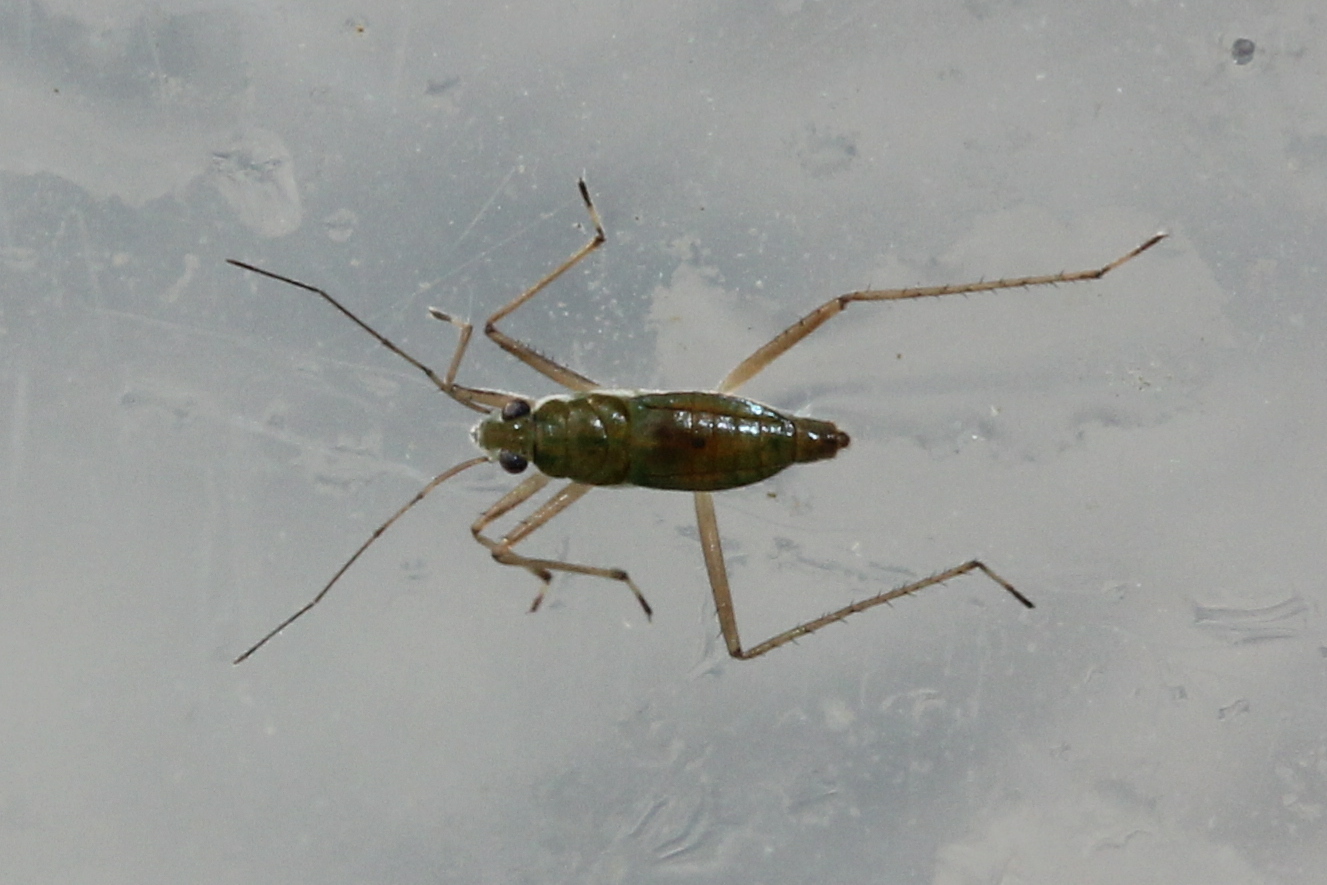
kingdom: Animalia
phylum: Arthropoda
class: Insecta
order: Hemiptera
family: Mesoveliidae
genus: Mesovelia
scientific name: Mesovelia mulsanti
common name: Water treaders
